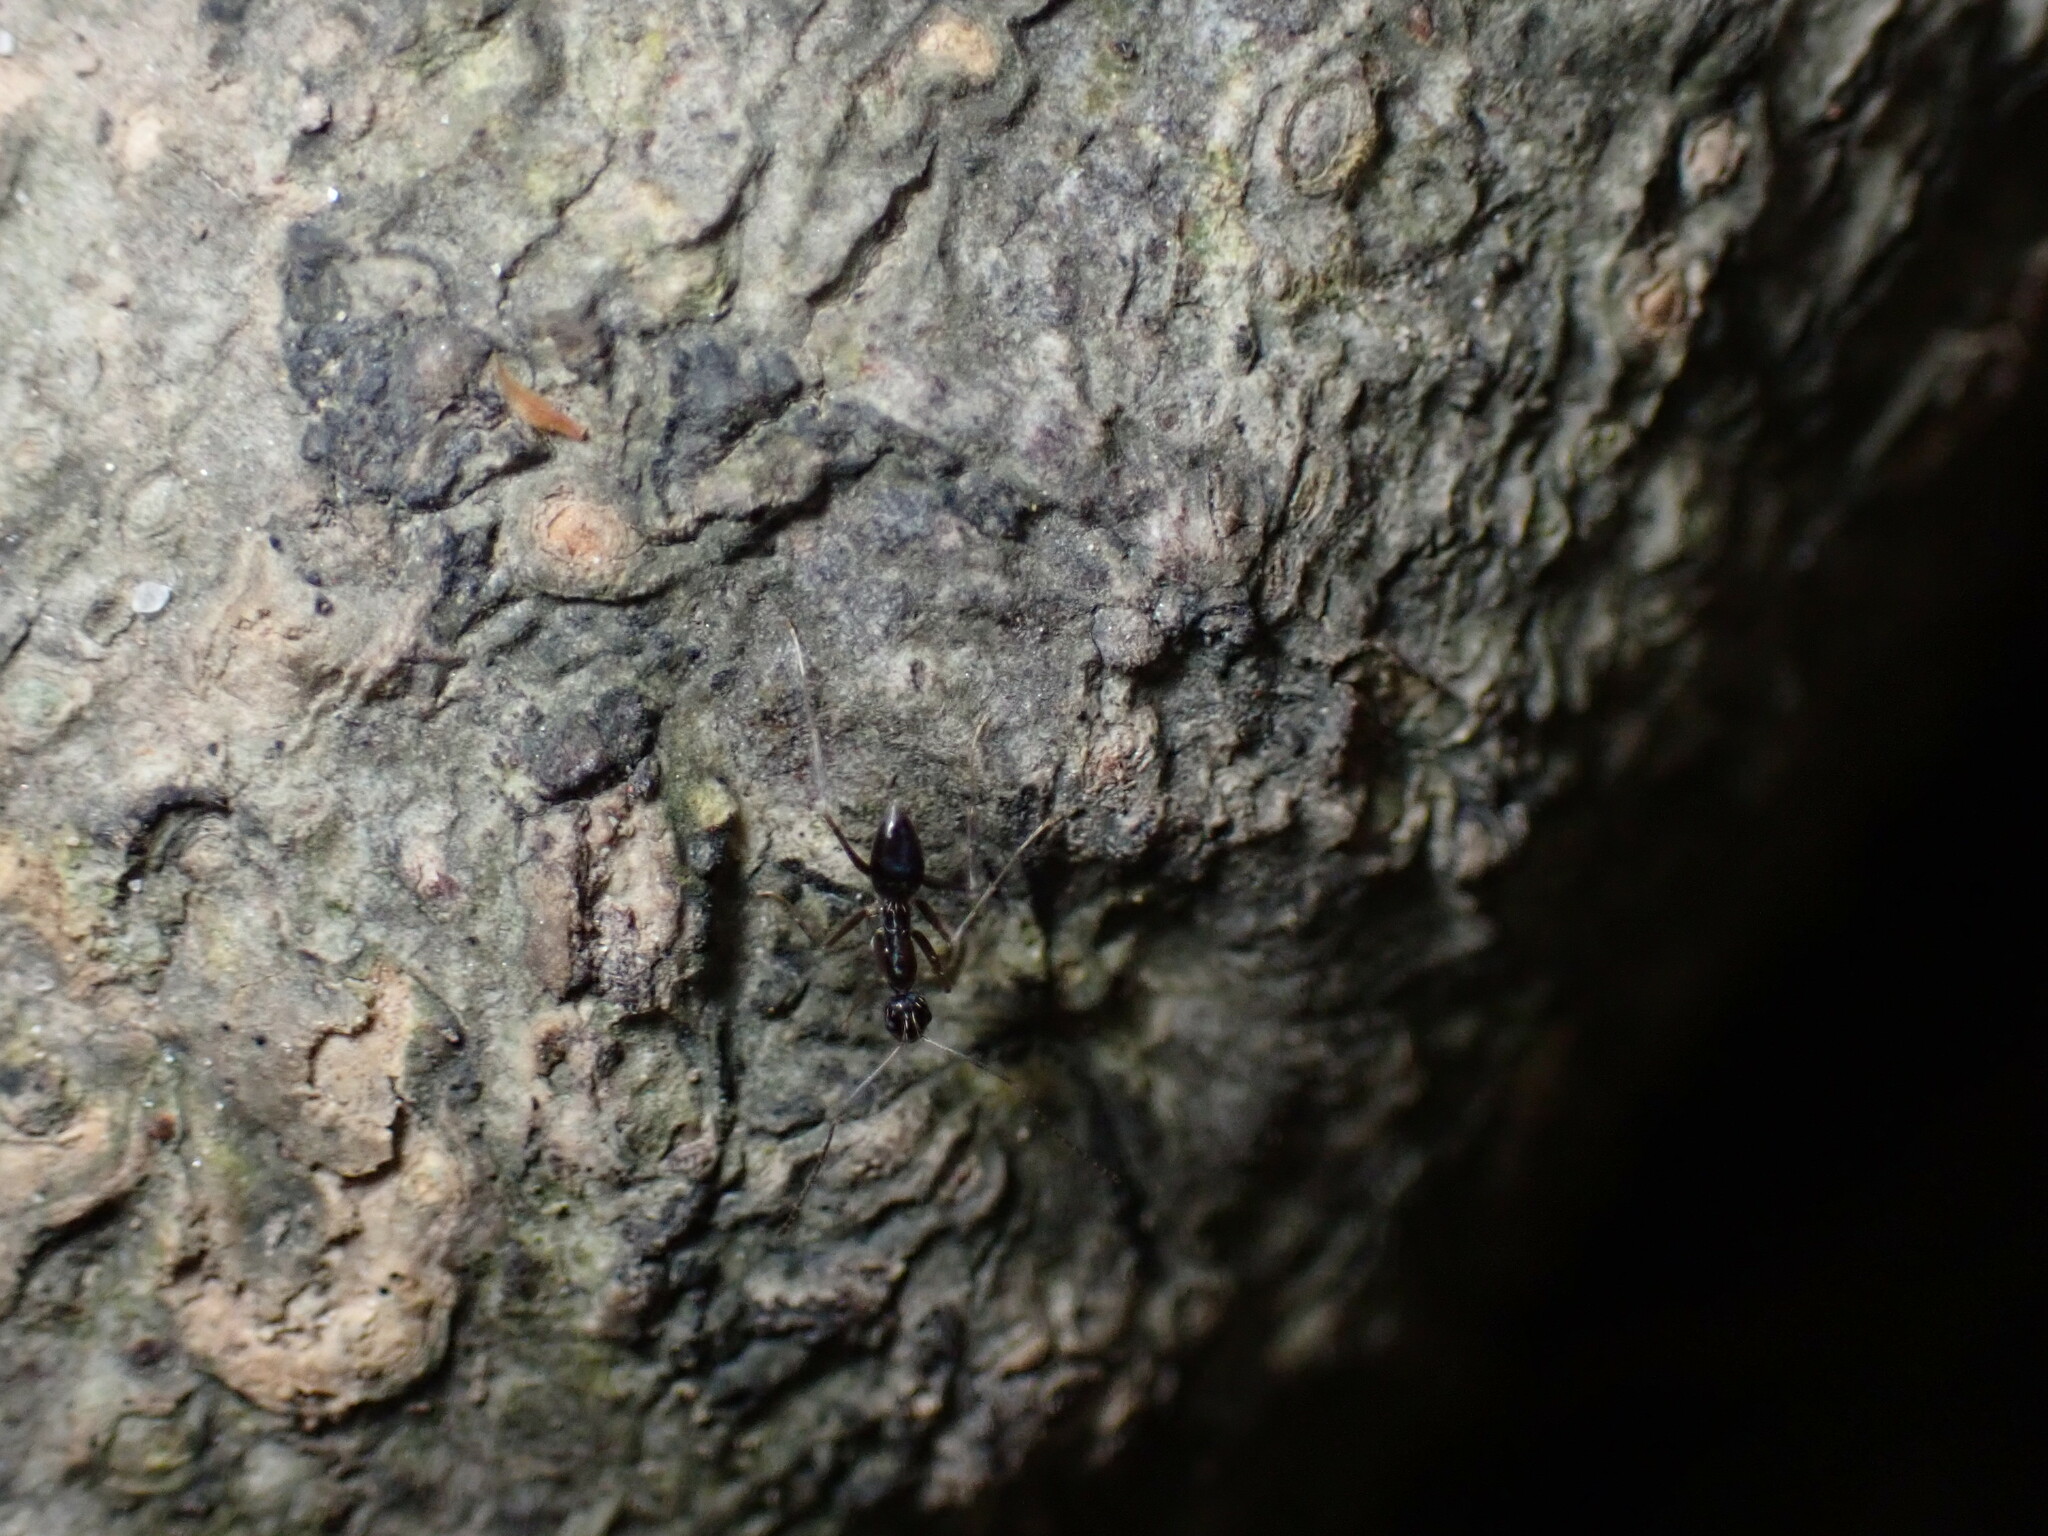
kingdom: Animalia
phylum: Arthropoda
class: Insecta
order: Hymenoptera
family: Formicidae
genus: Paratrechina
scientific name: Paratrechina longicornis
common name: Longhorned crazy ant
